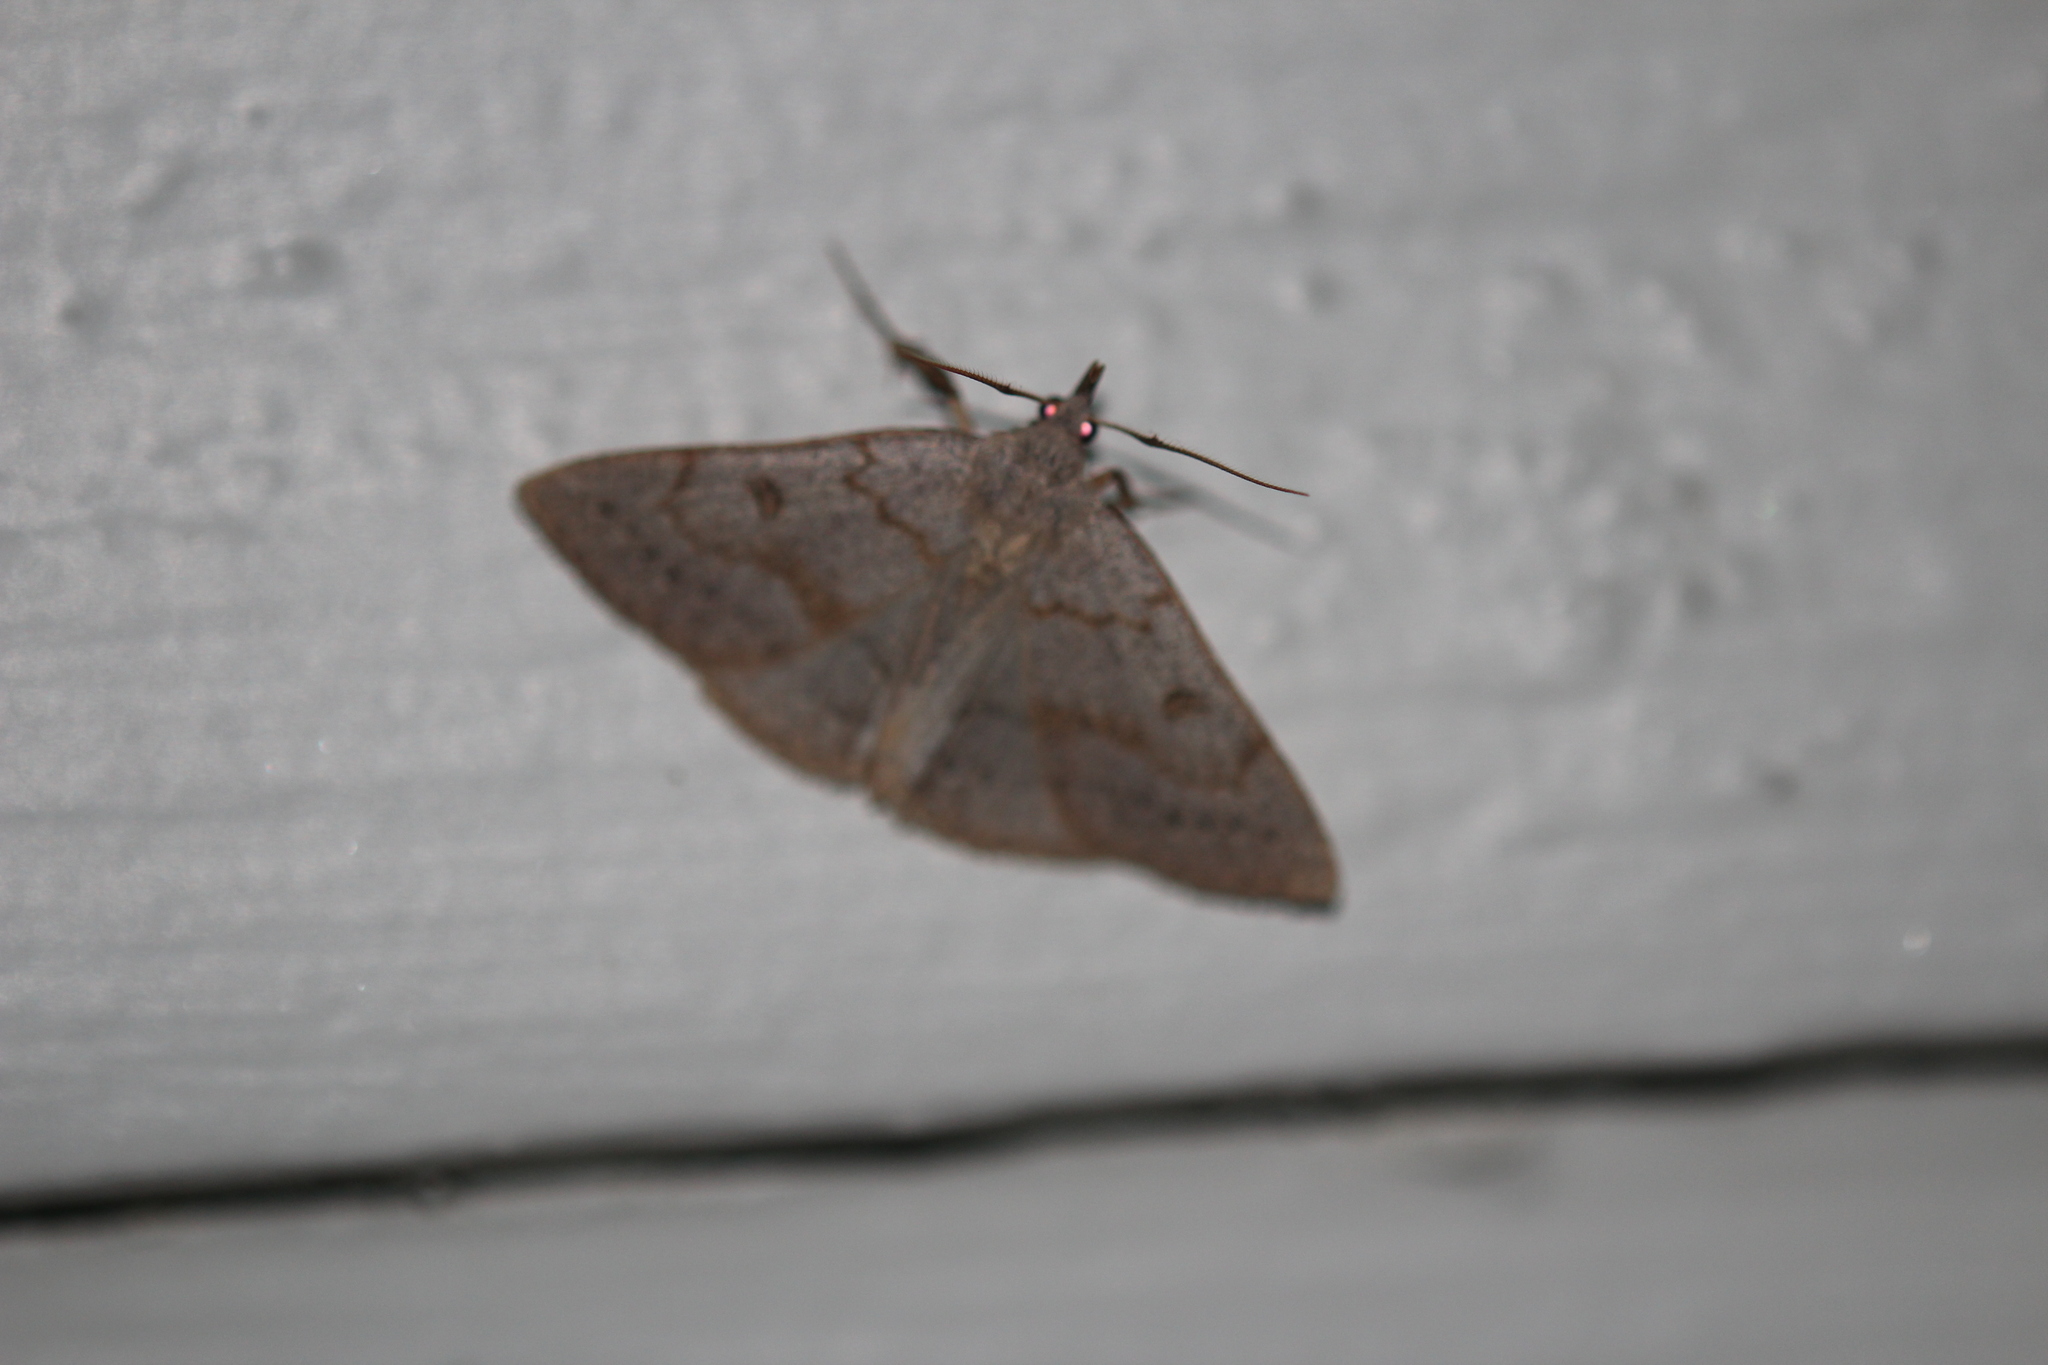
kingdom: Animalia
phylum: Arthropoda
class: Insecta
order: Lepidoptera
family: Erebidae
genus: Macrochilo
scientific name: Macrochilo morbidalis
